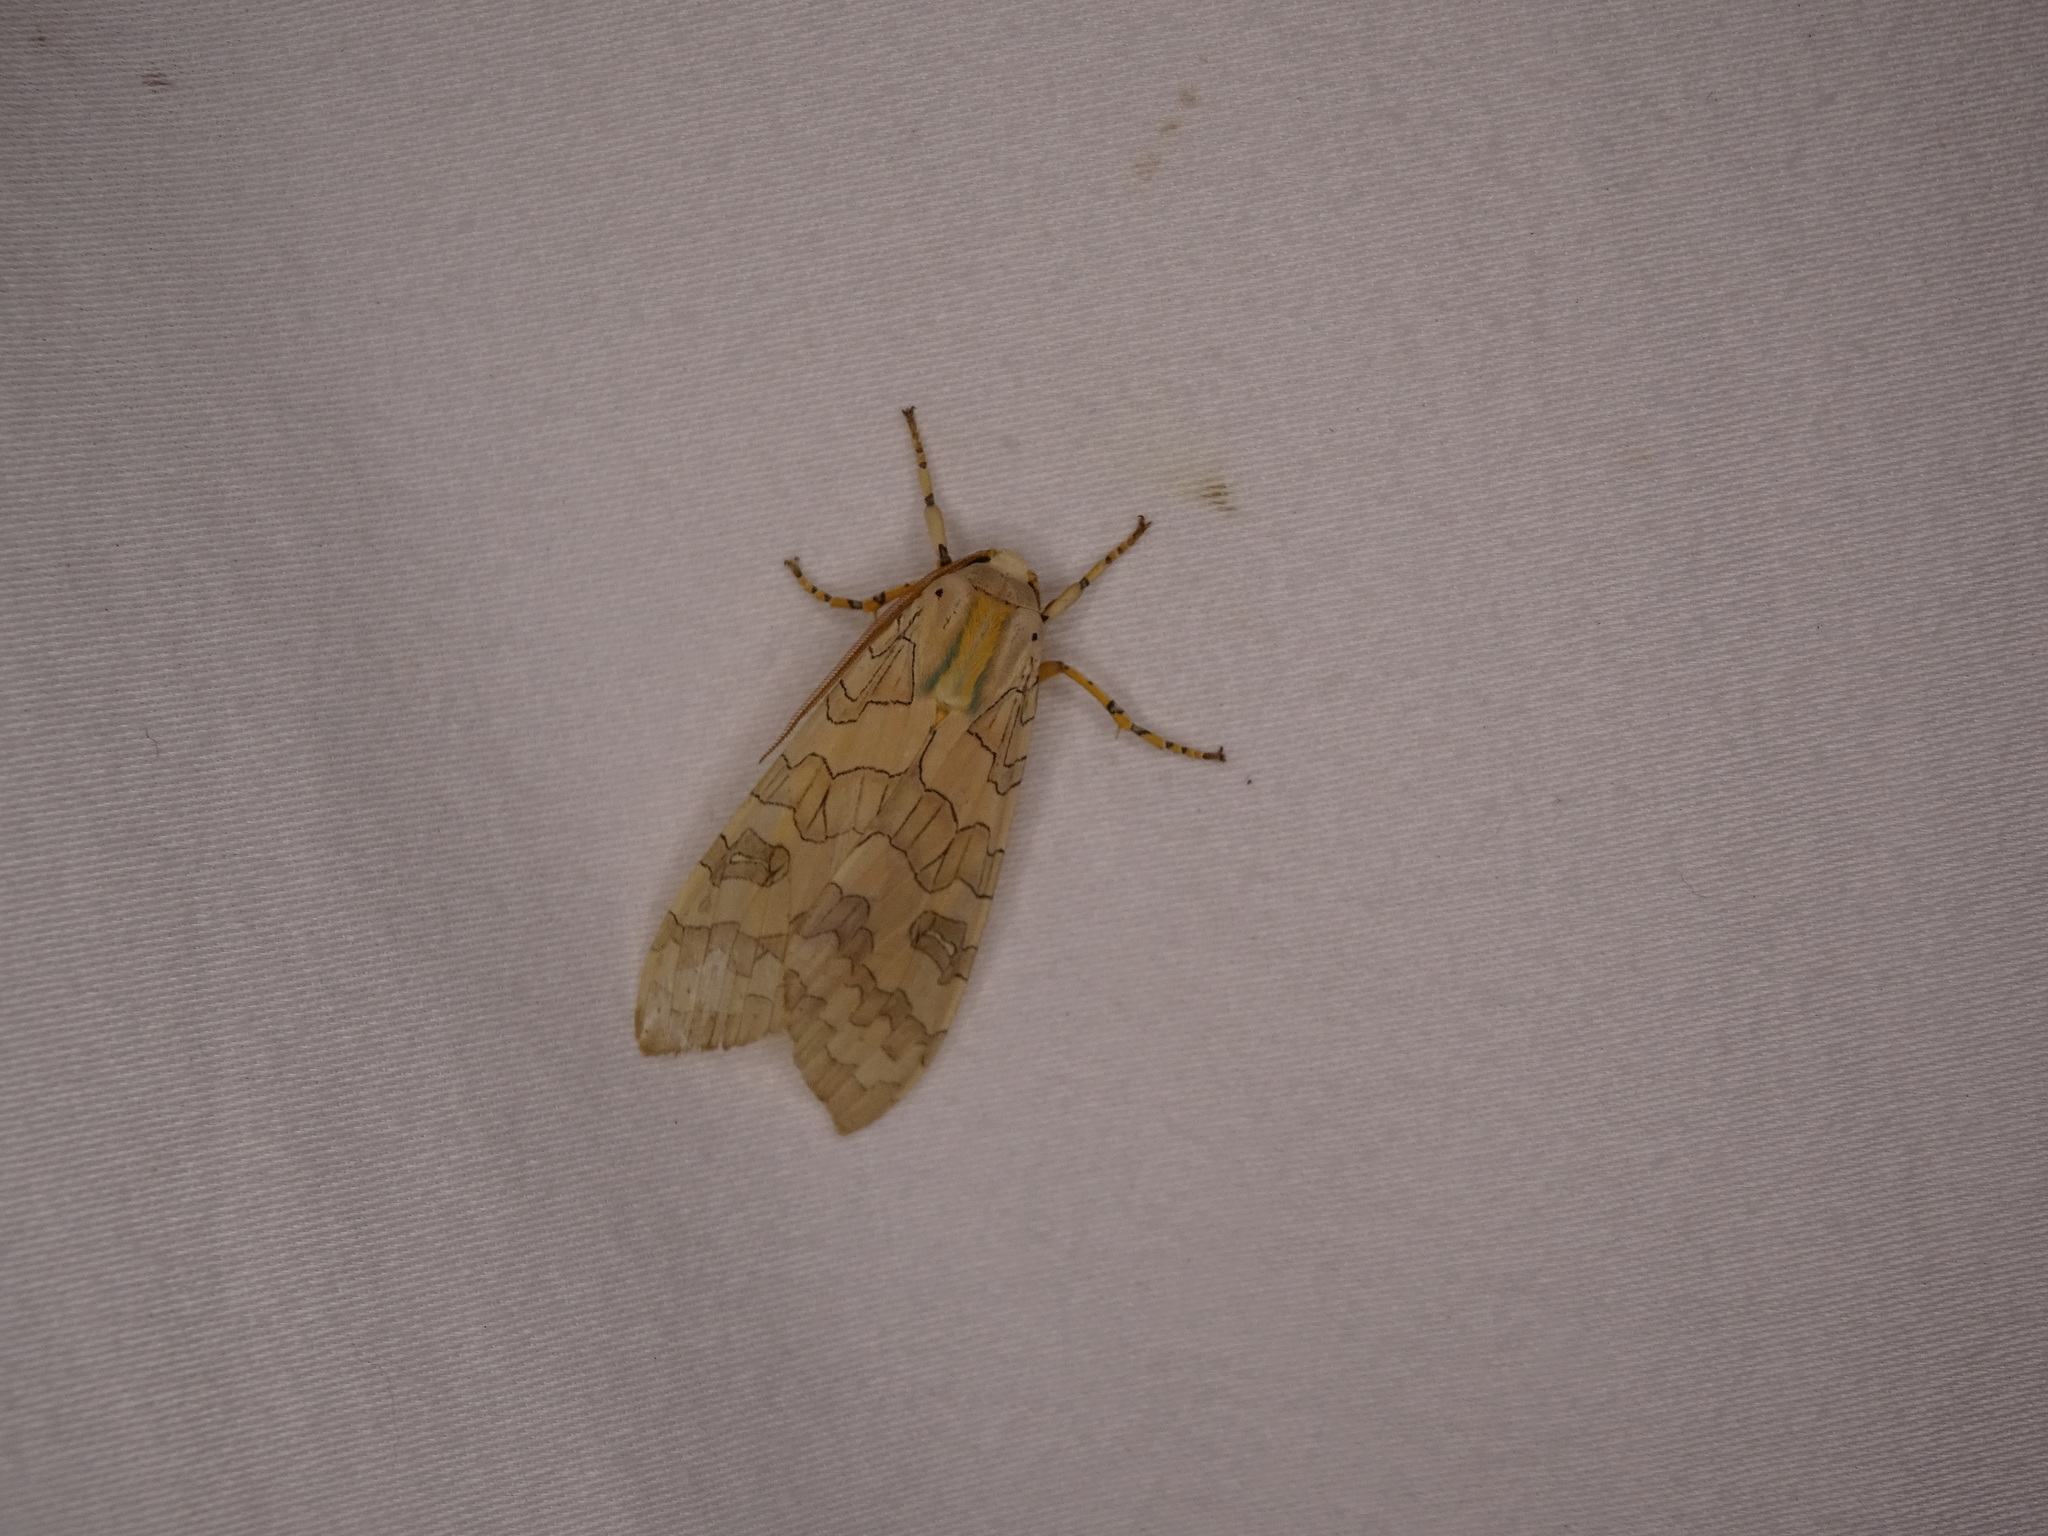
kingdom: Animalia
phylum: Arthropoda
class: Insecta
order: Lepidoptera
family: Erebidae
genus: Halysidota
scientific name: Halysidota
